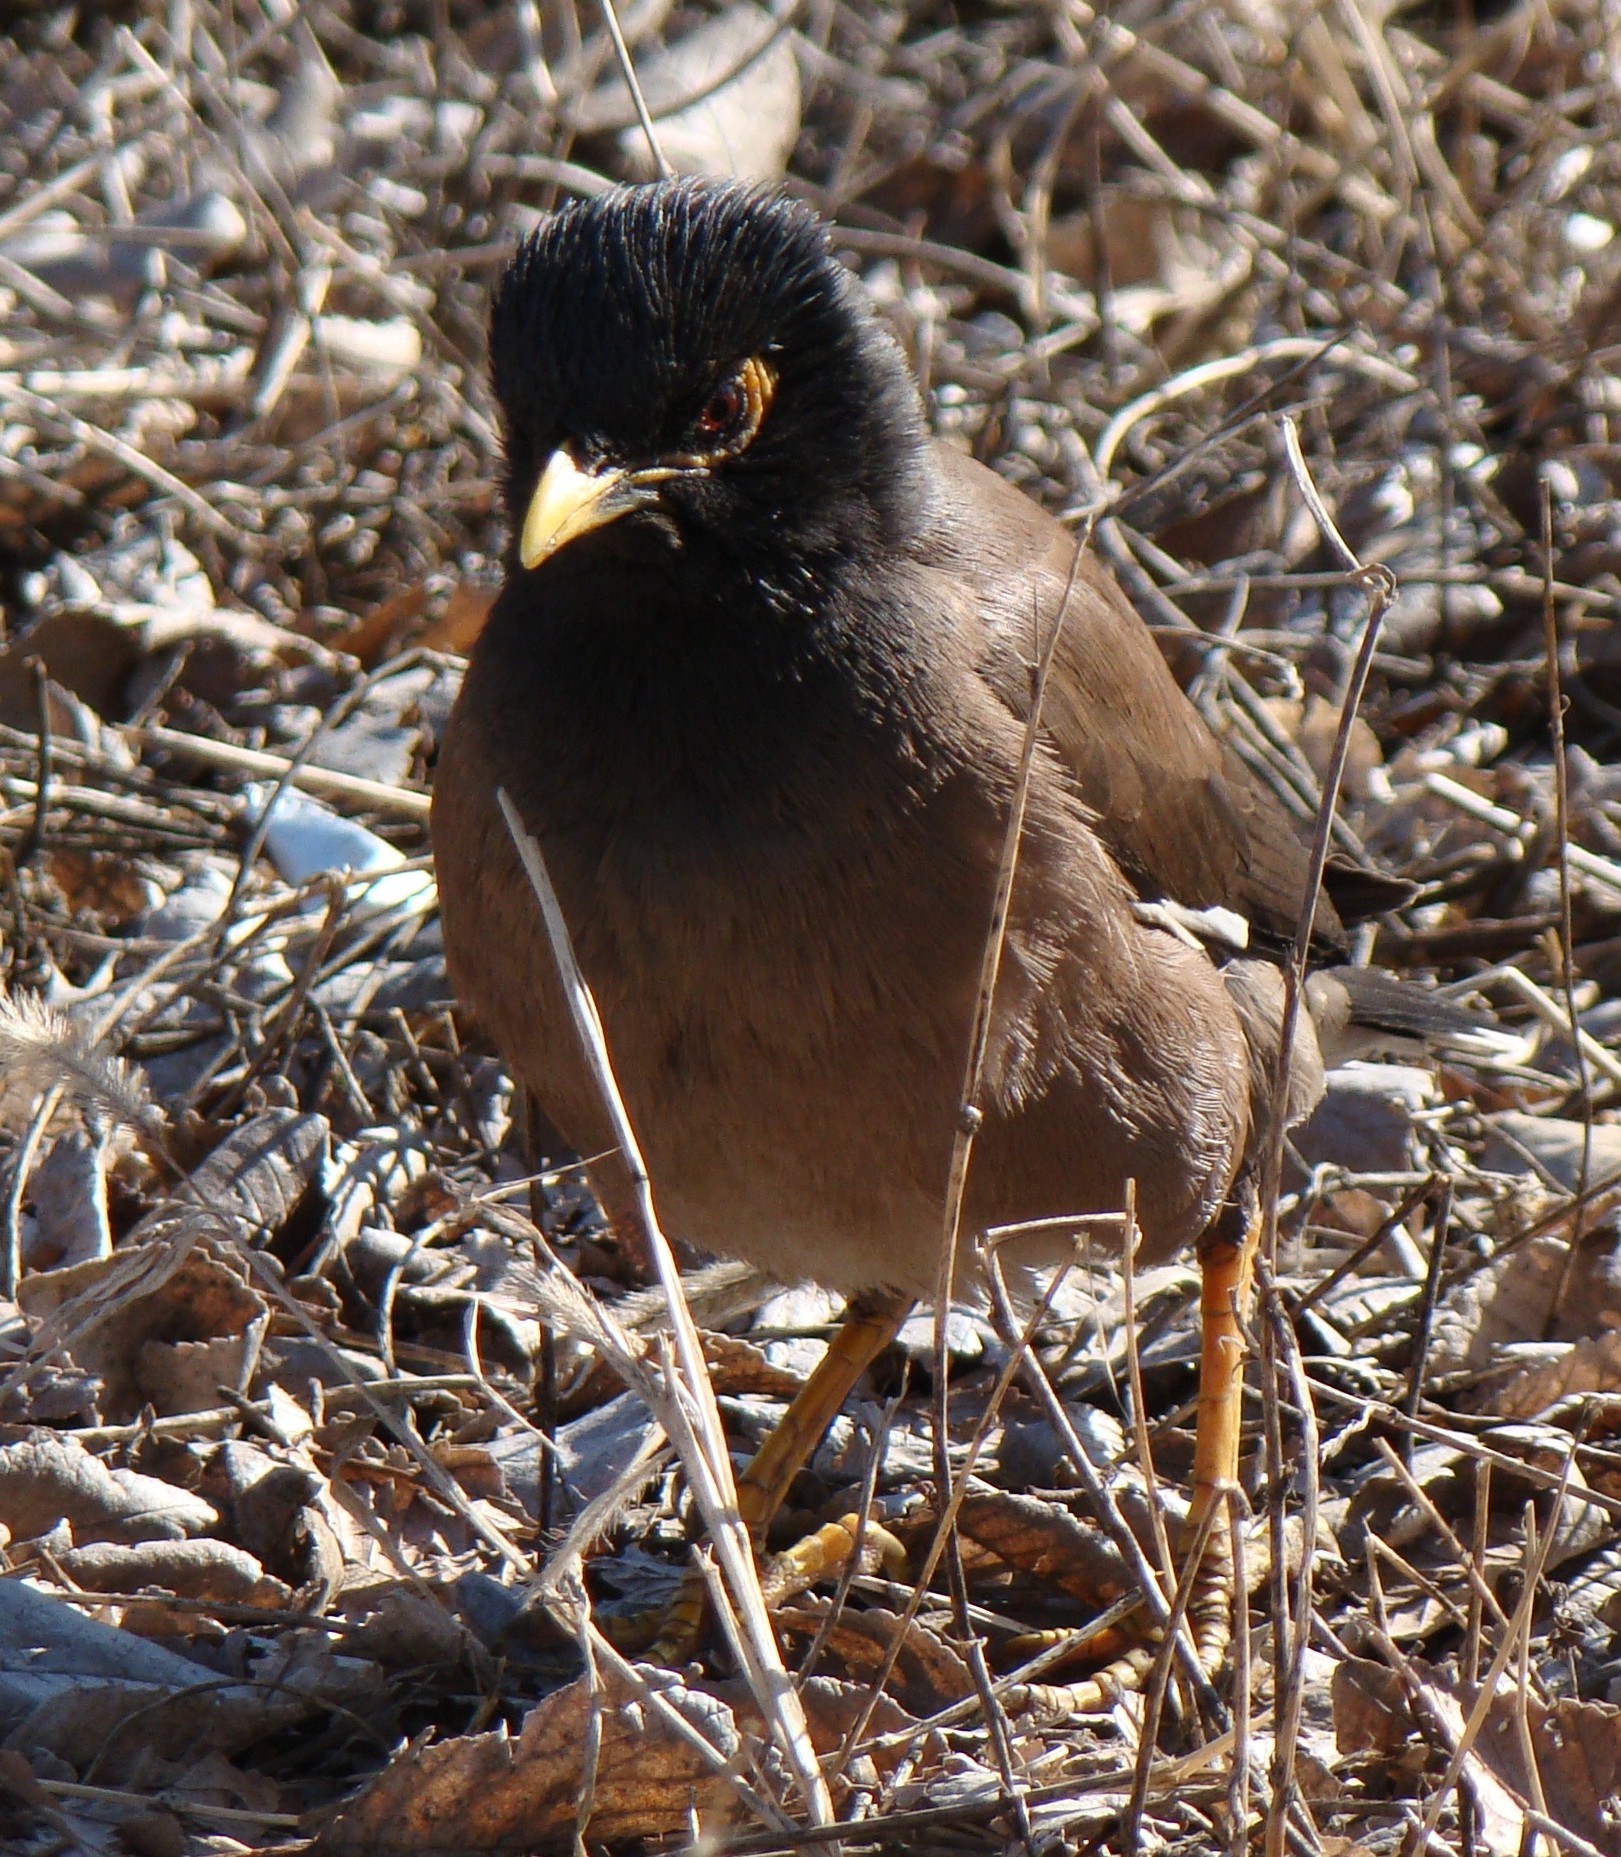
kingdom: Animalia
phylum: Chordata
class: Aves
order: Passeriformes
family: Sturnidae
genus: Acridotheres
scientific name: Acridotheres tristis
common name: Common myna
